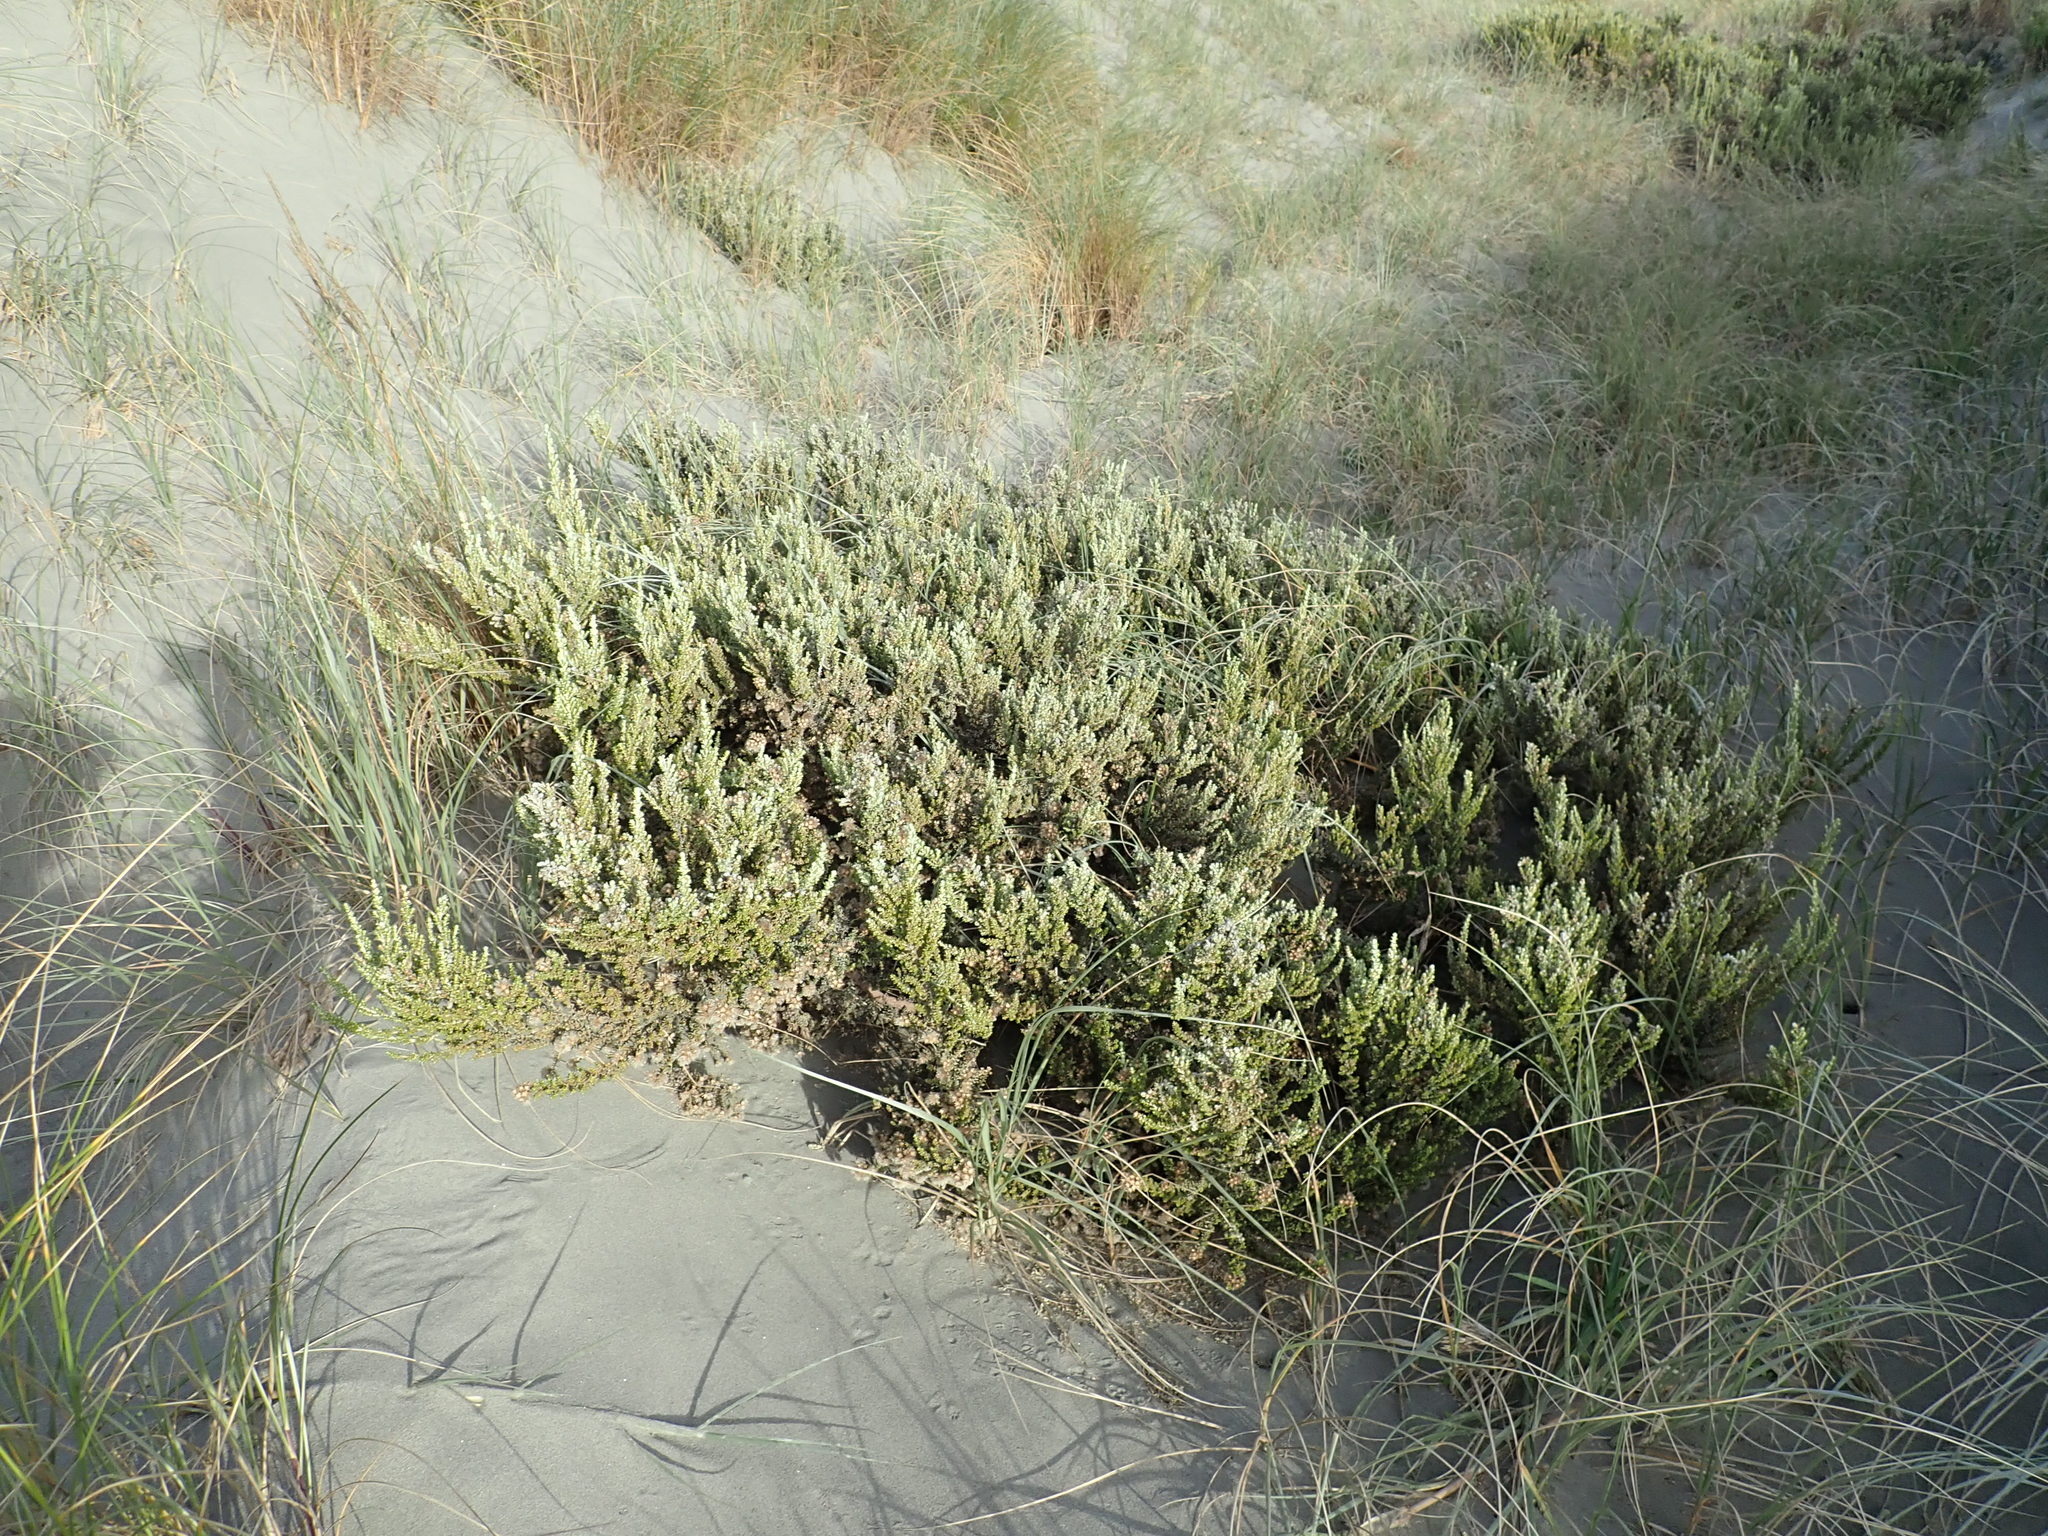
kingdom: Plantae
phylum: Tracheophyta
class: Magnoliopsida
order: Asterales
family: Asteraceae
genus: Ozothamnus
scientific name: Ozothamnus leptophyllus
